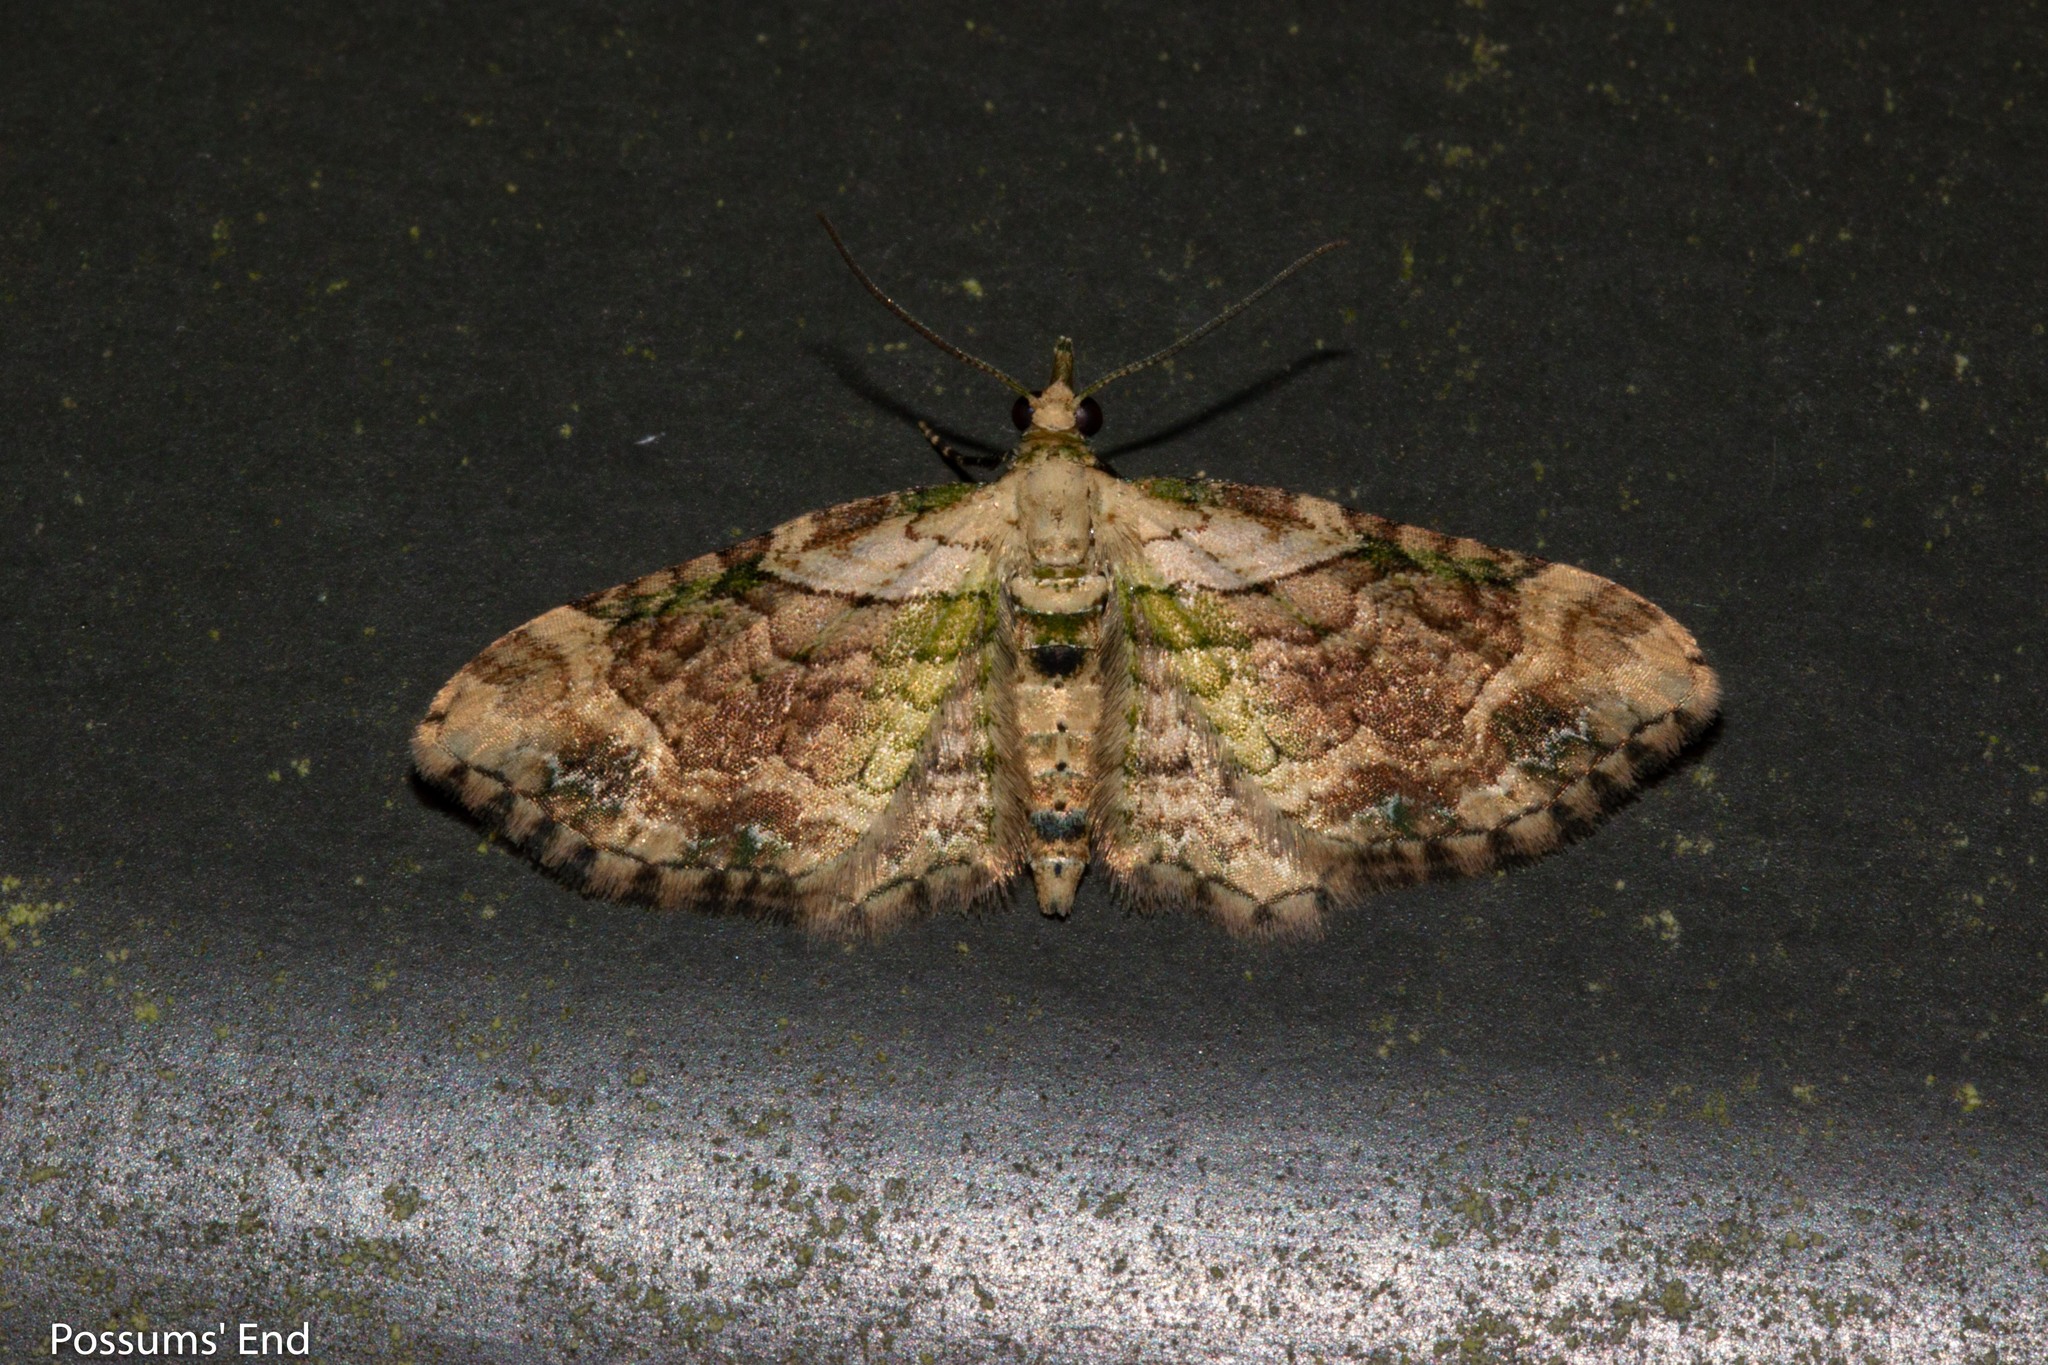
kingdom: Animalia
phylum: Arthropoda
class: Insecta
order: Lepidoptera
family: Geometridae
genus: Chloroclystis
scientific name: Chloroclystis
